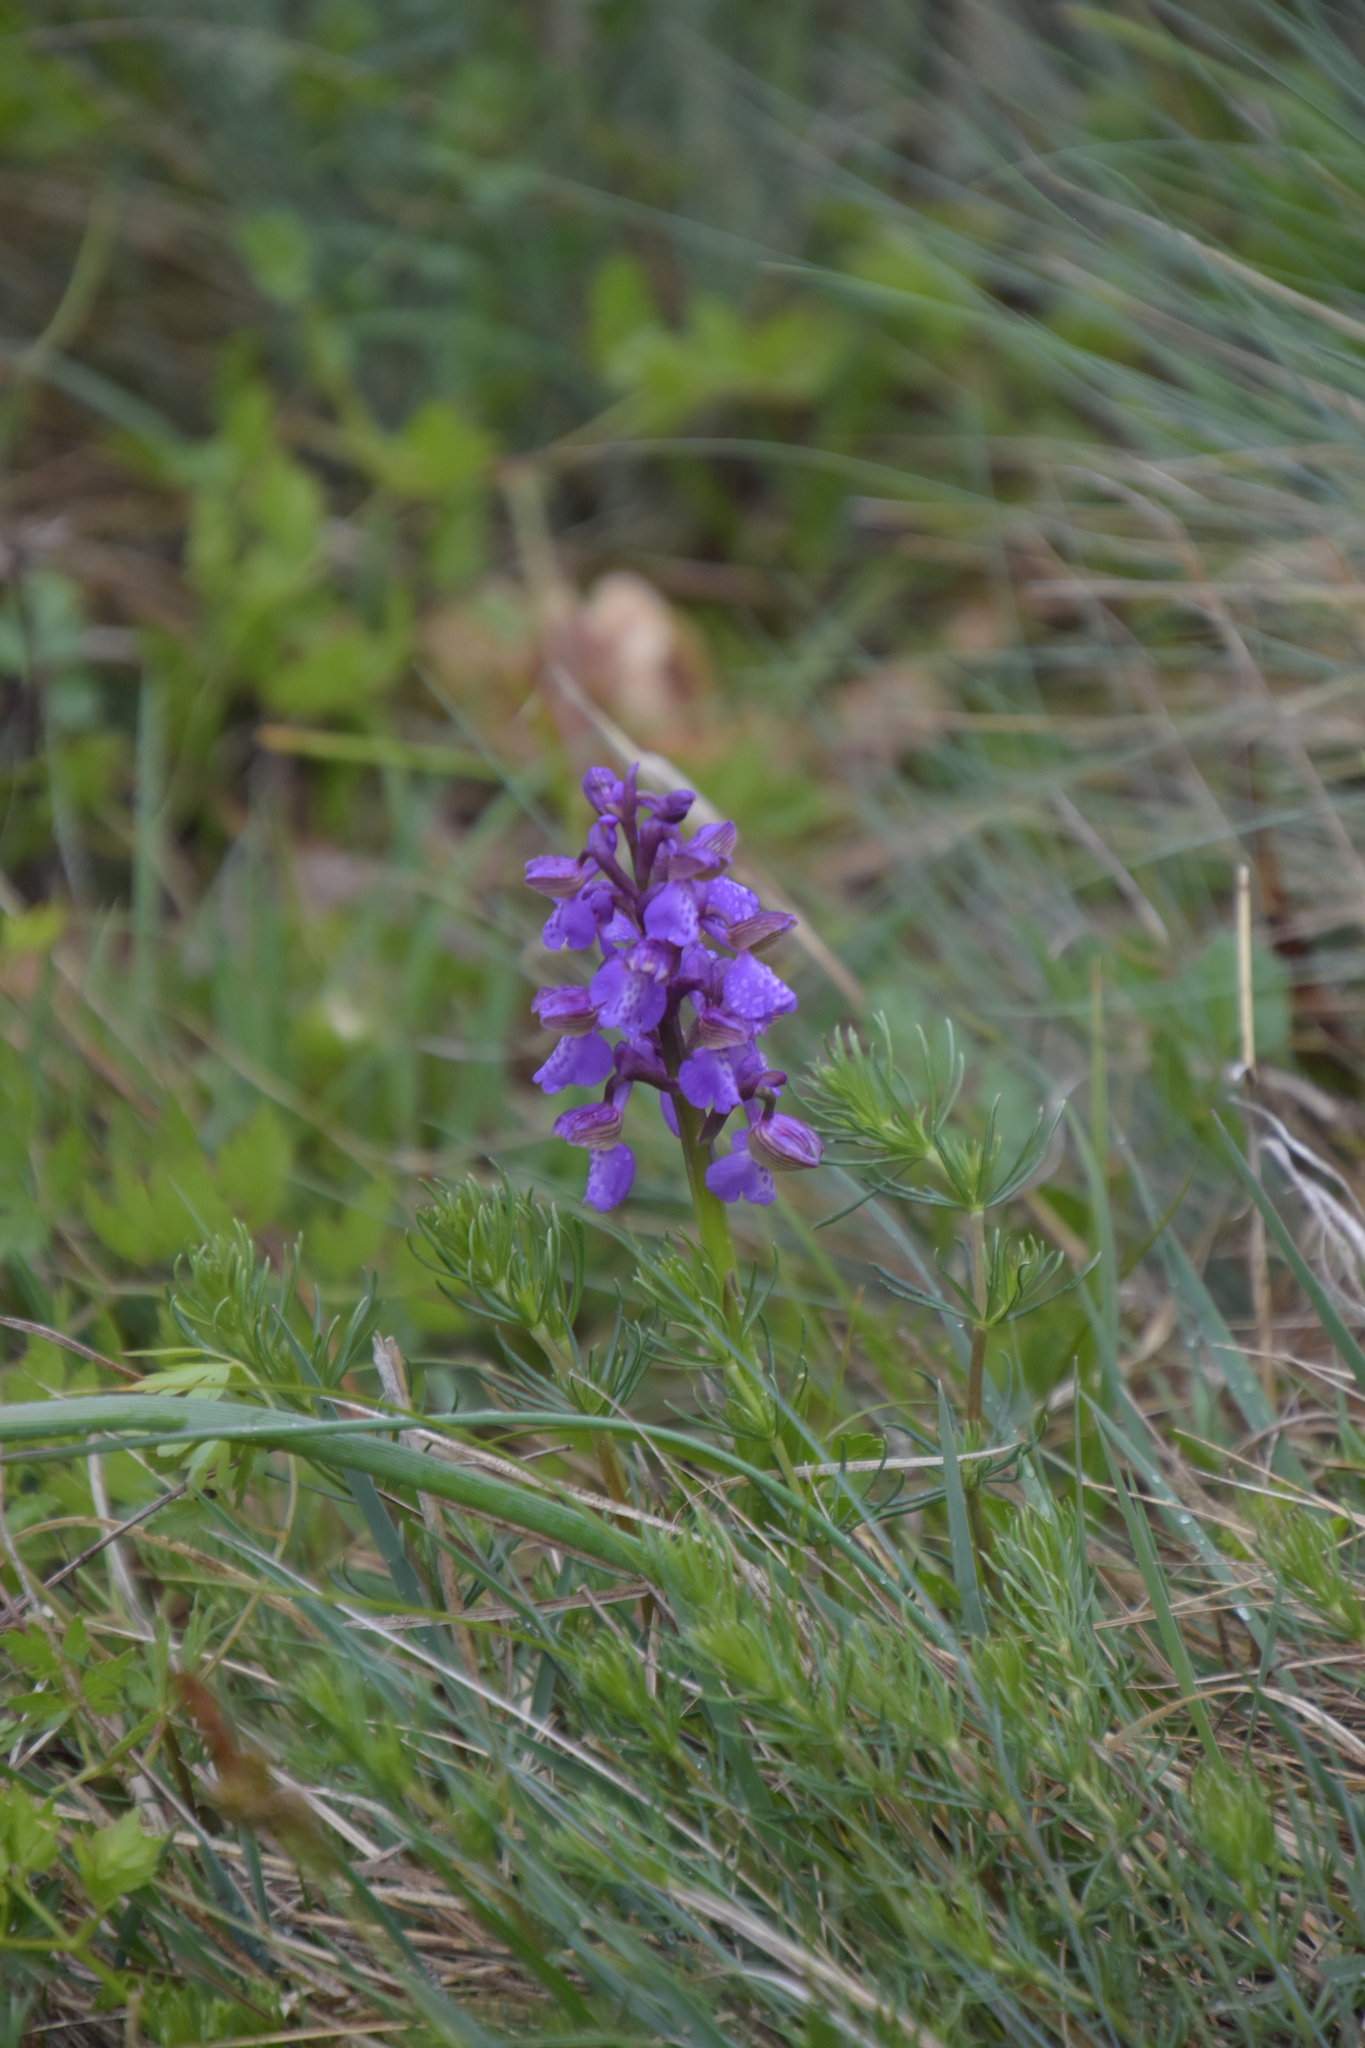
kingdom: Plantae
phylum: Tracheophyta
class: Liliopsida
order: Asparagales
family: Orchidaceae
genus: Anacamptis
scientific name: Anacamptis morio
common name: Green-winged orchid
